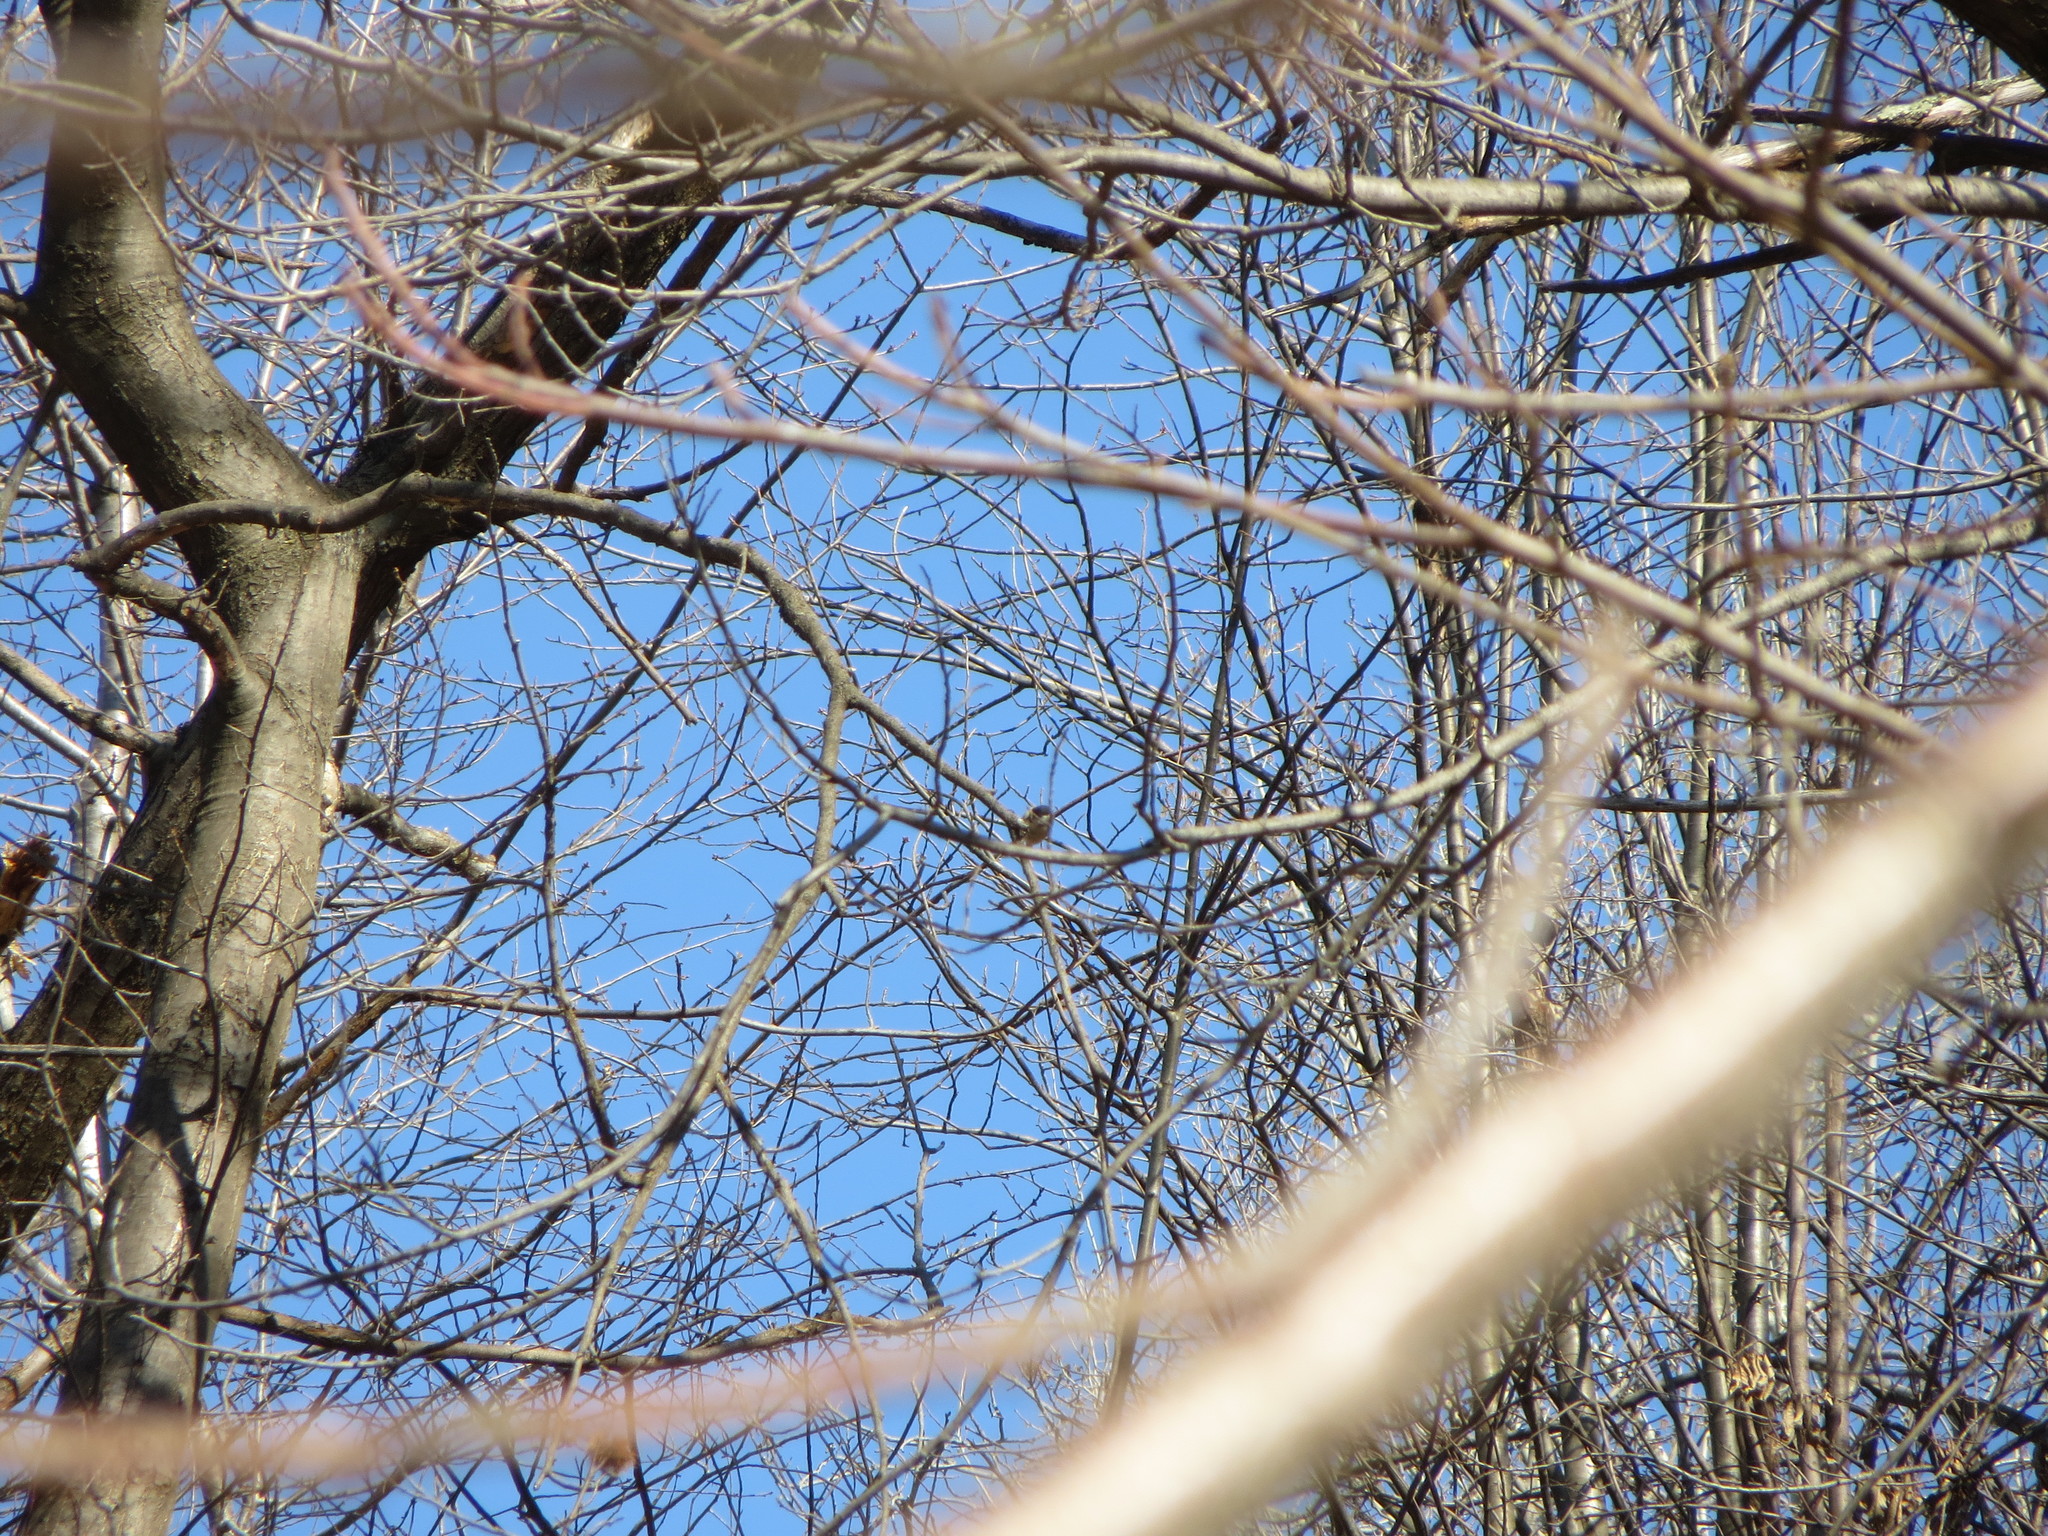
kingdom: Animalia
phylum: Chordata
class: Aves
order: Passeriformes
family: Paridae
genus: Poecile
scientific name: Poecile palustris
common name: Marsh tit
